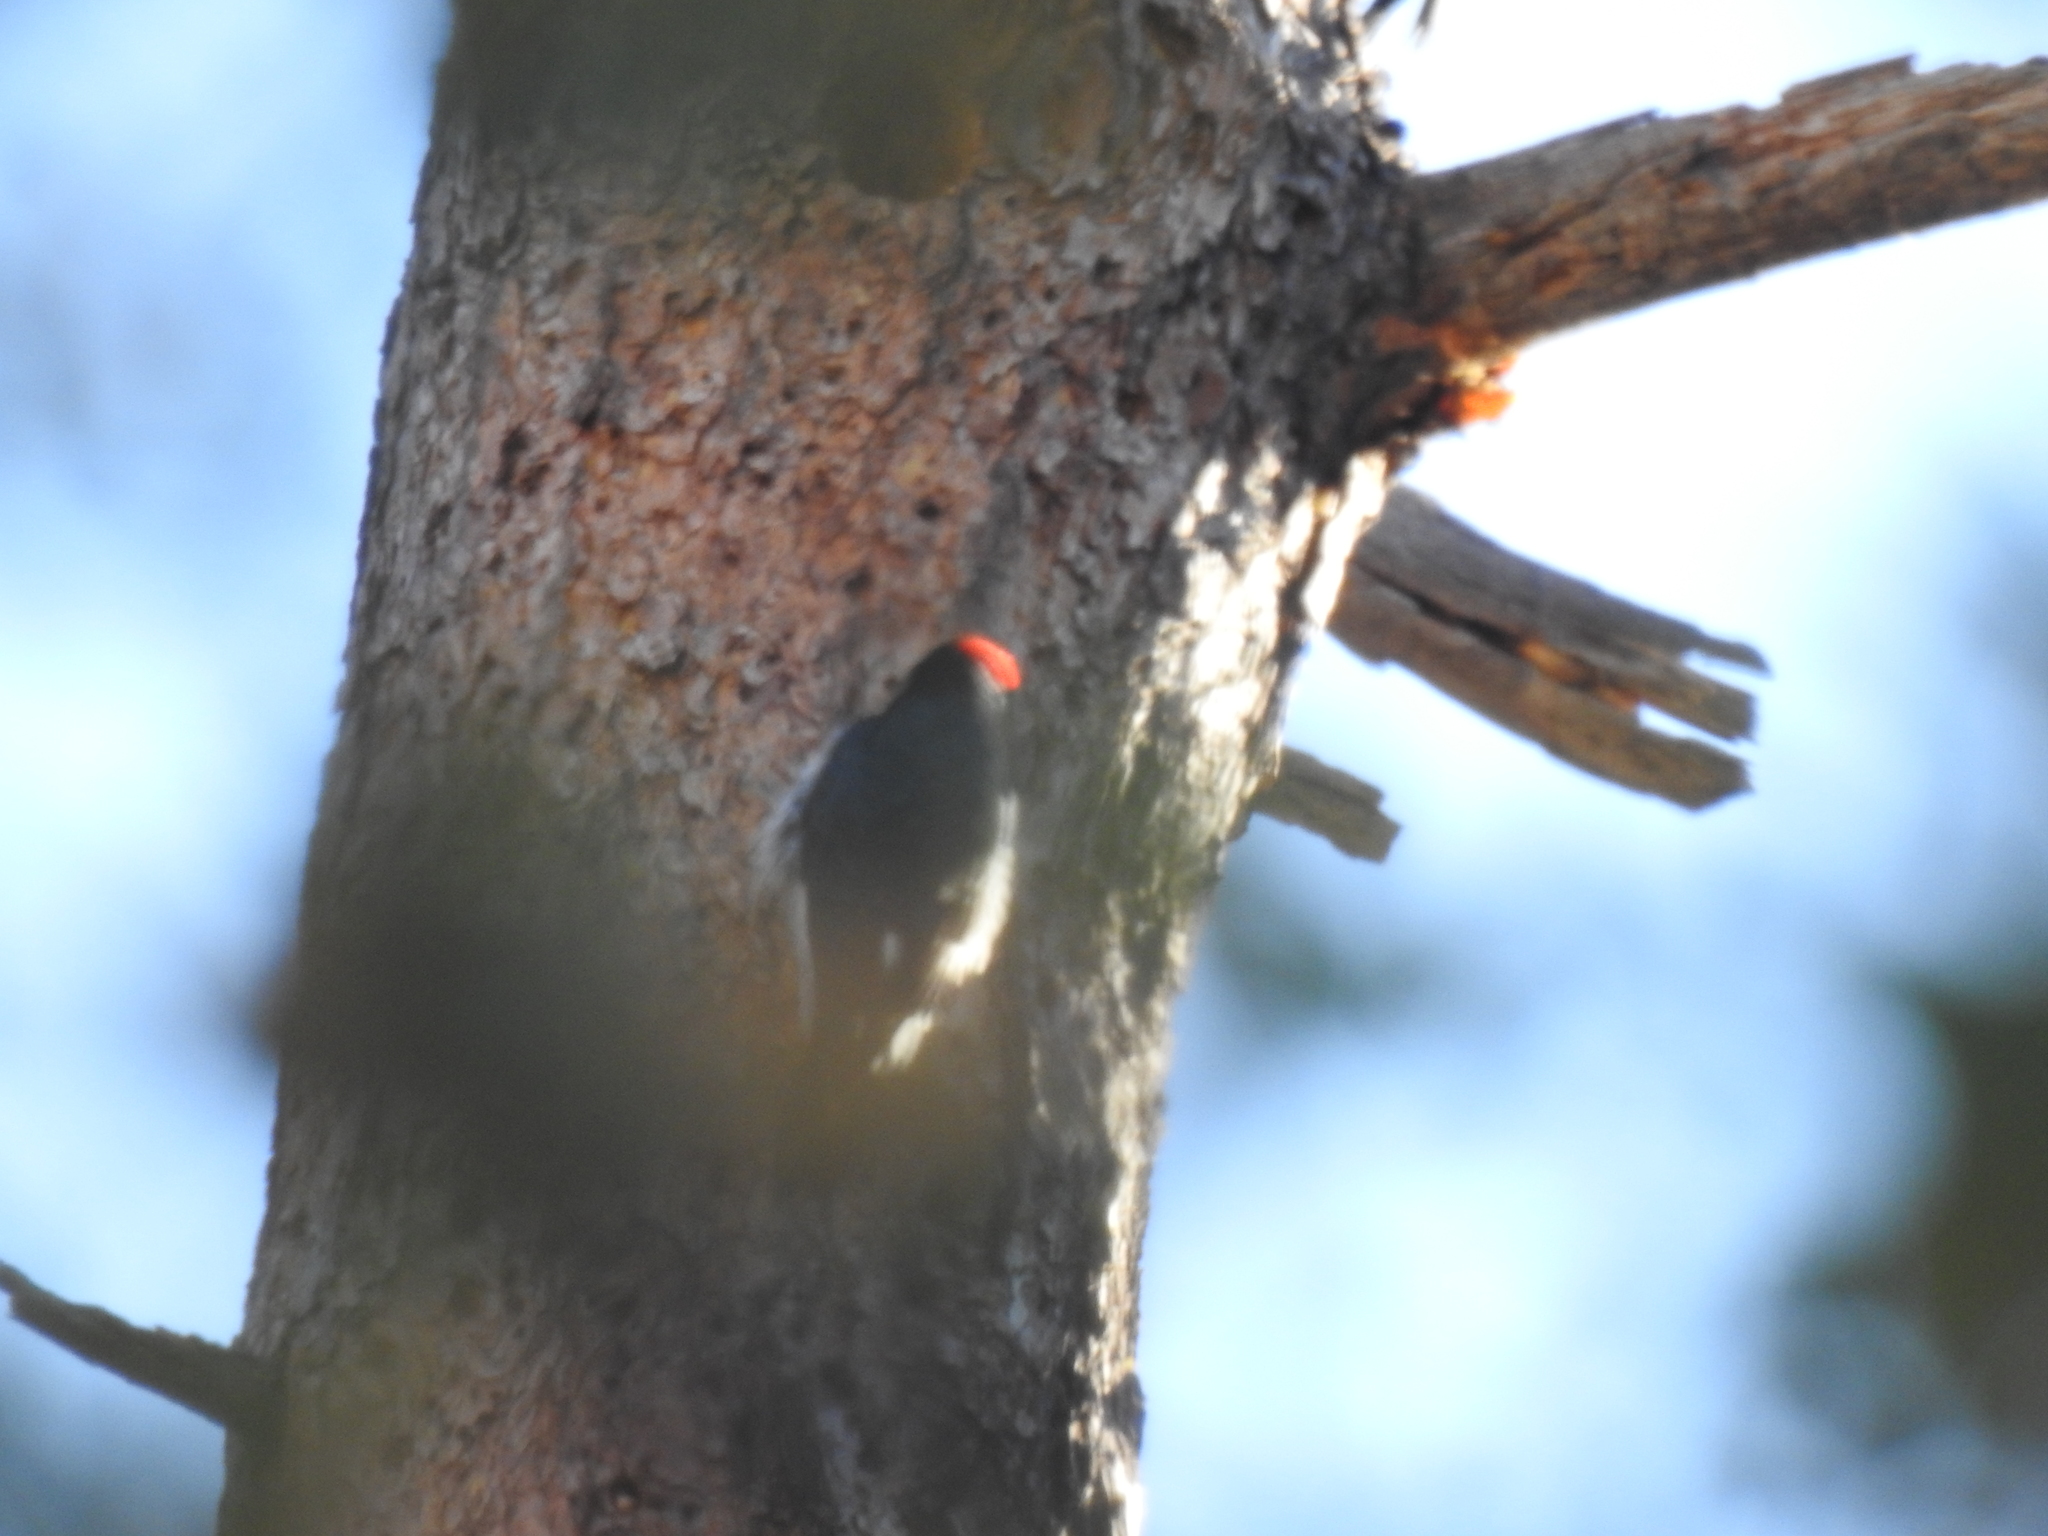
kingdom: Animalia
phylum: Chordata
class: Aves
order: Piciformes
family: Picidae
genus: Melanerpes
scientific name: Melanerpes formicivorus
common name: Acorn woodpecker
